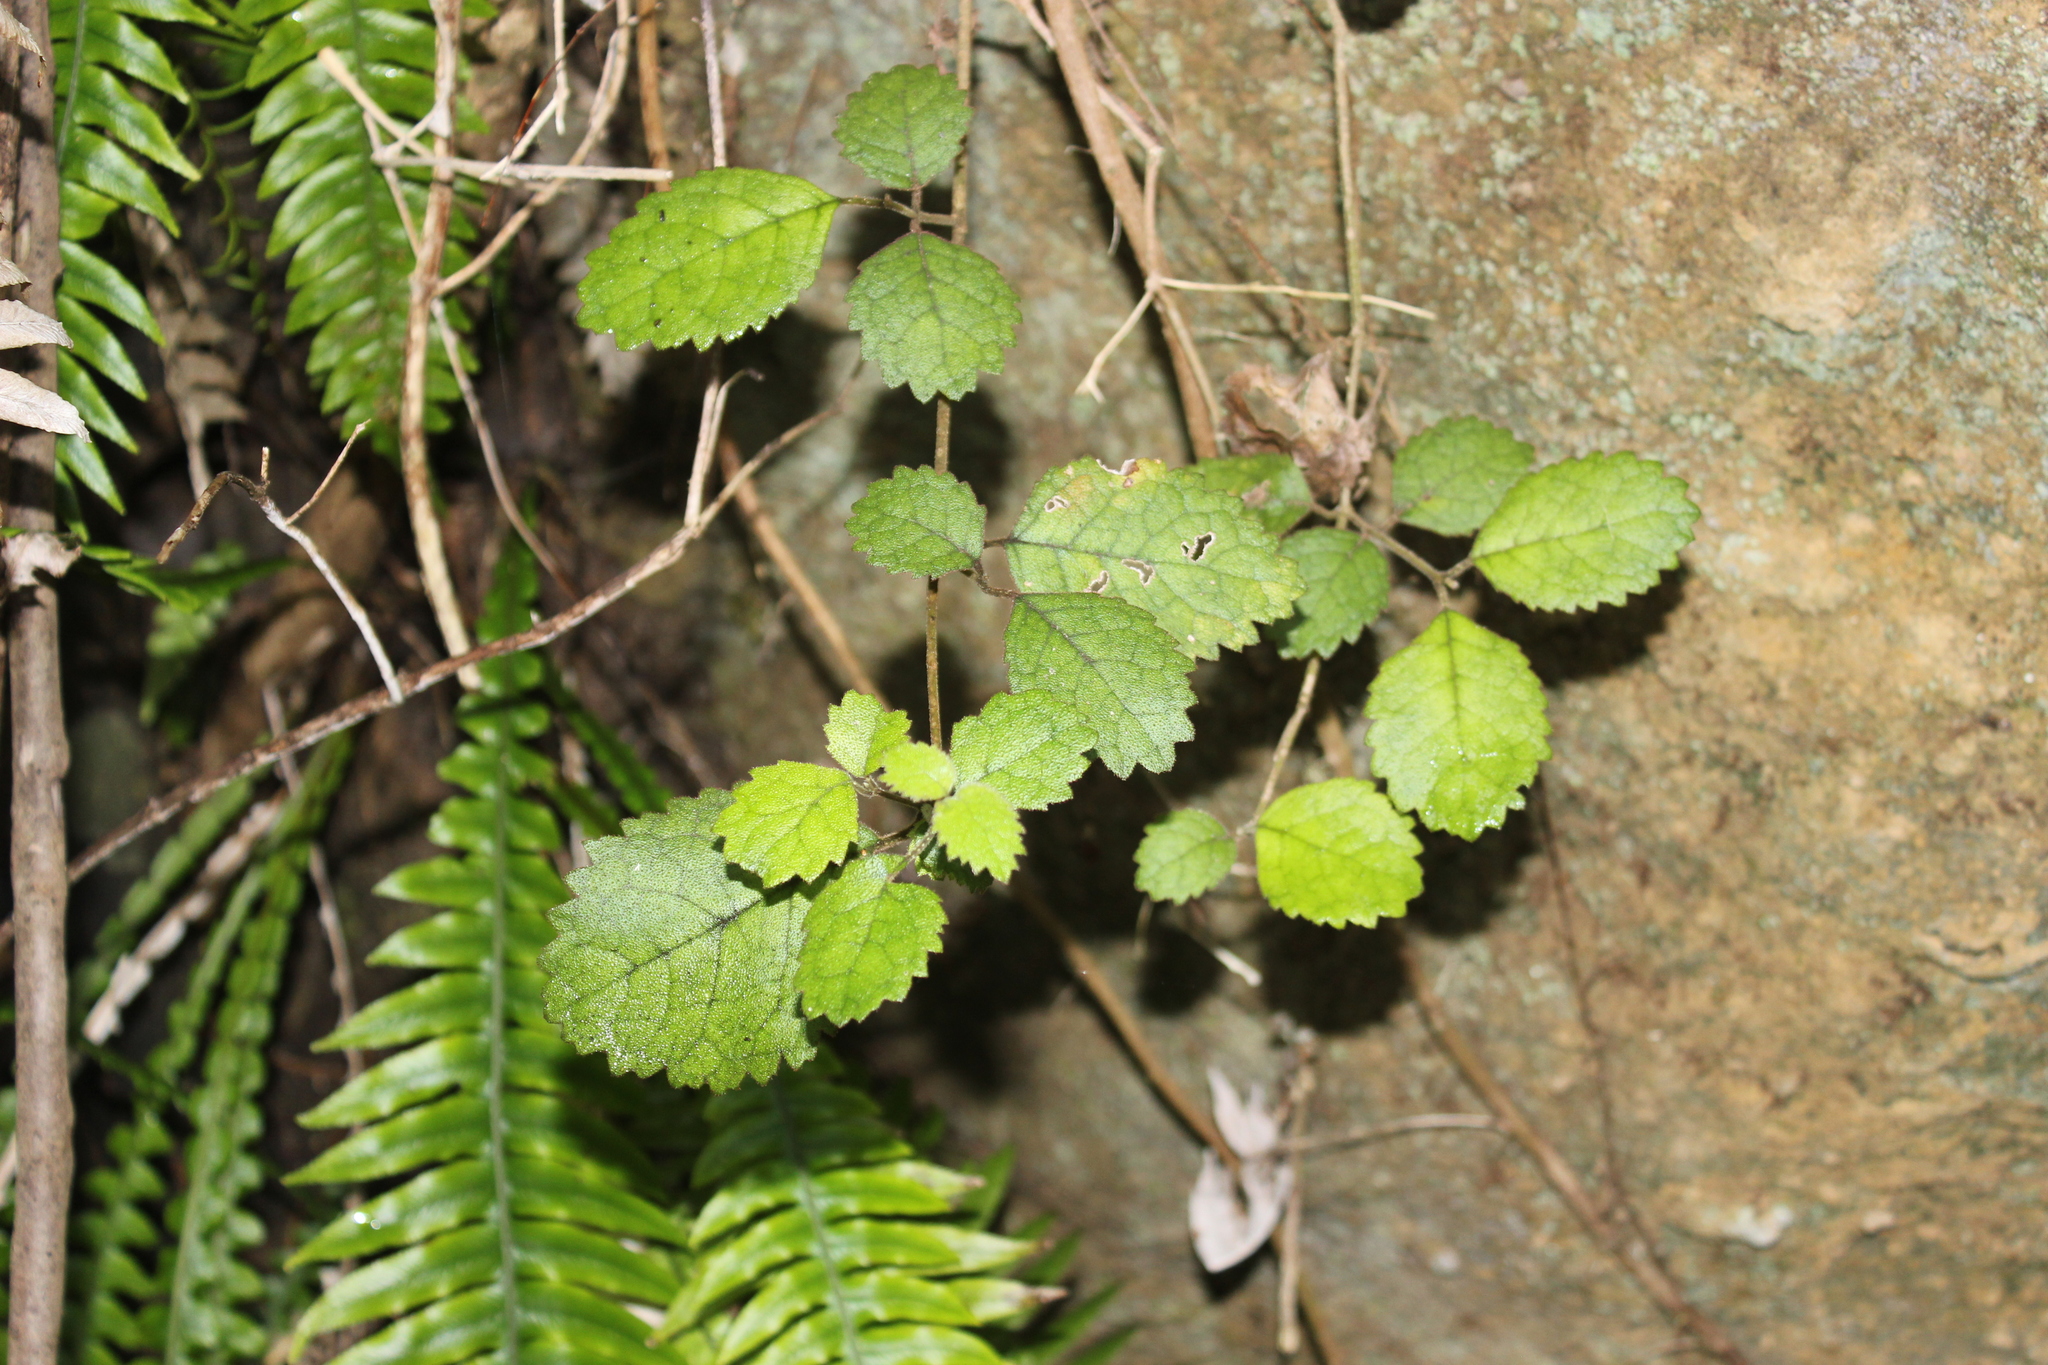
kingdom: Plantae
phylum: Tracheophyta
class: Magnoliopsida
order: Lamiales
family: Gesneriaceae
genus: Rhabdothamnus
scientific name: Rhabdothamnus solandri
